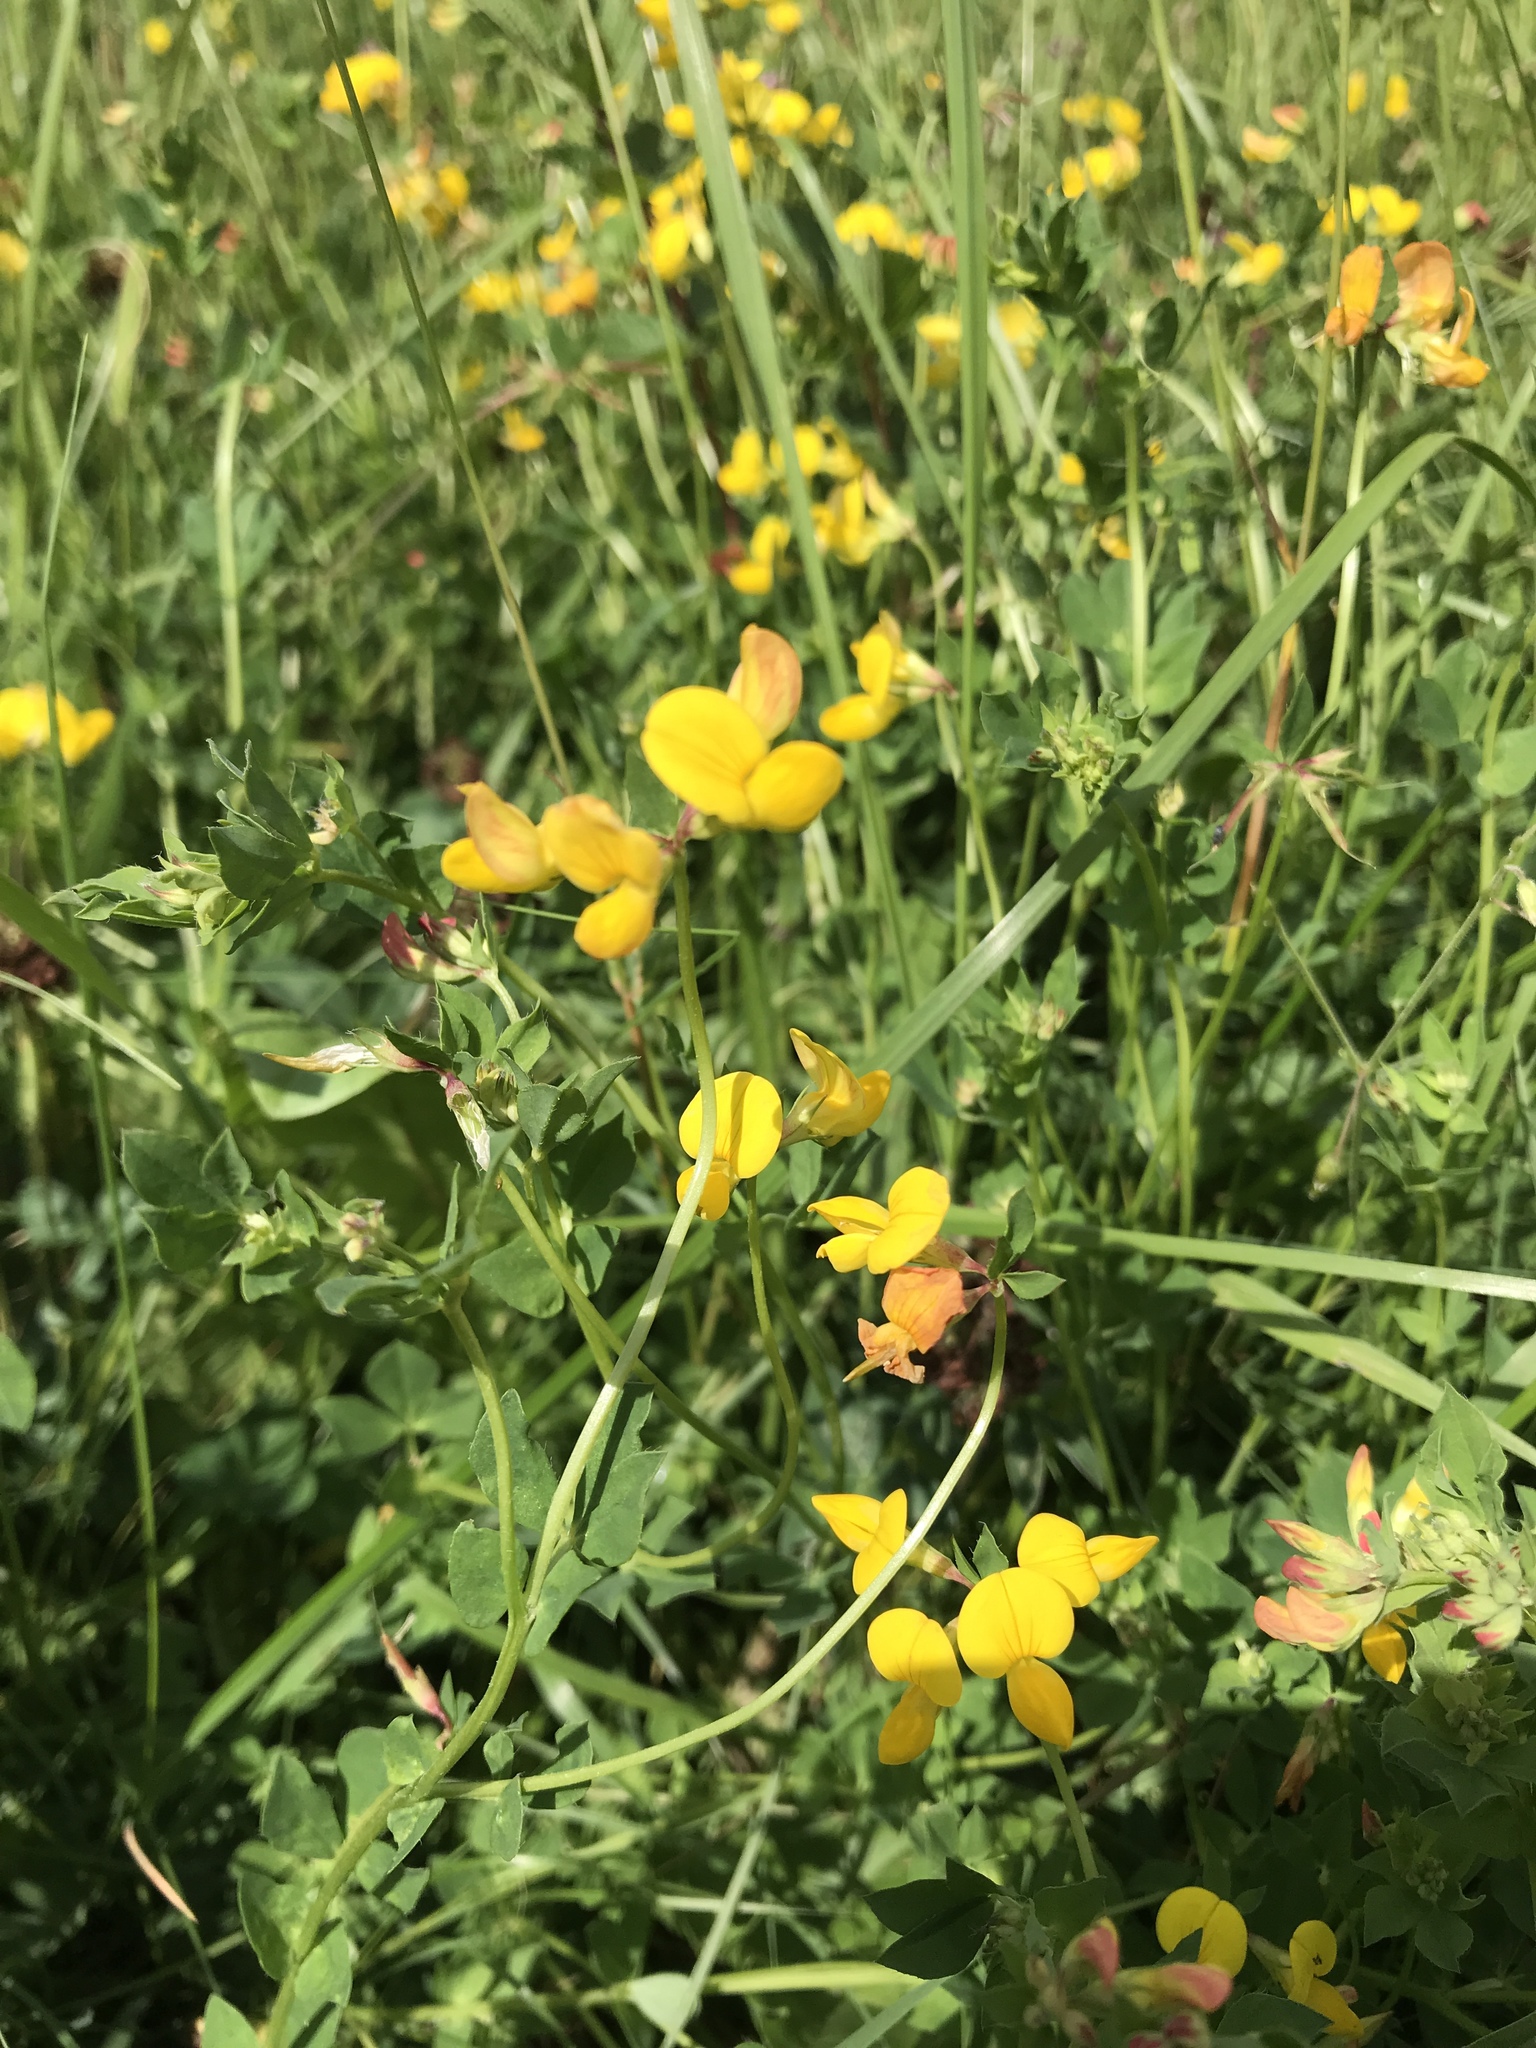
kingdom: Plantae
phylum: Tracheophyta
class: Magnoliopsida
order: Fabales
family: Fabaceae
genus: Lotus
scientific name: Lotus corniculatus
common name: Common bird's-foot-trefoil
